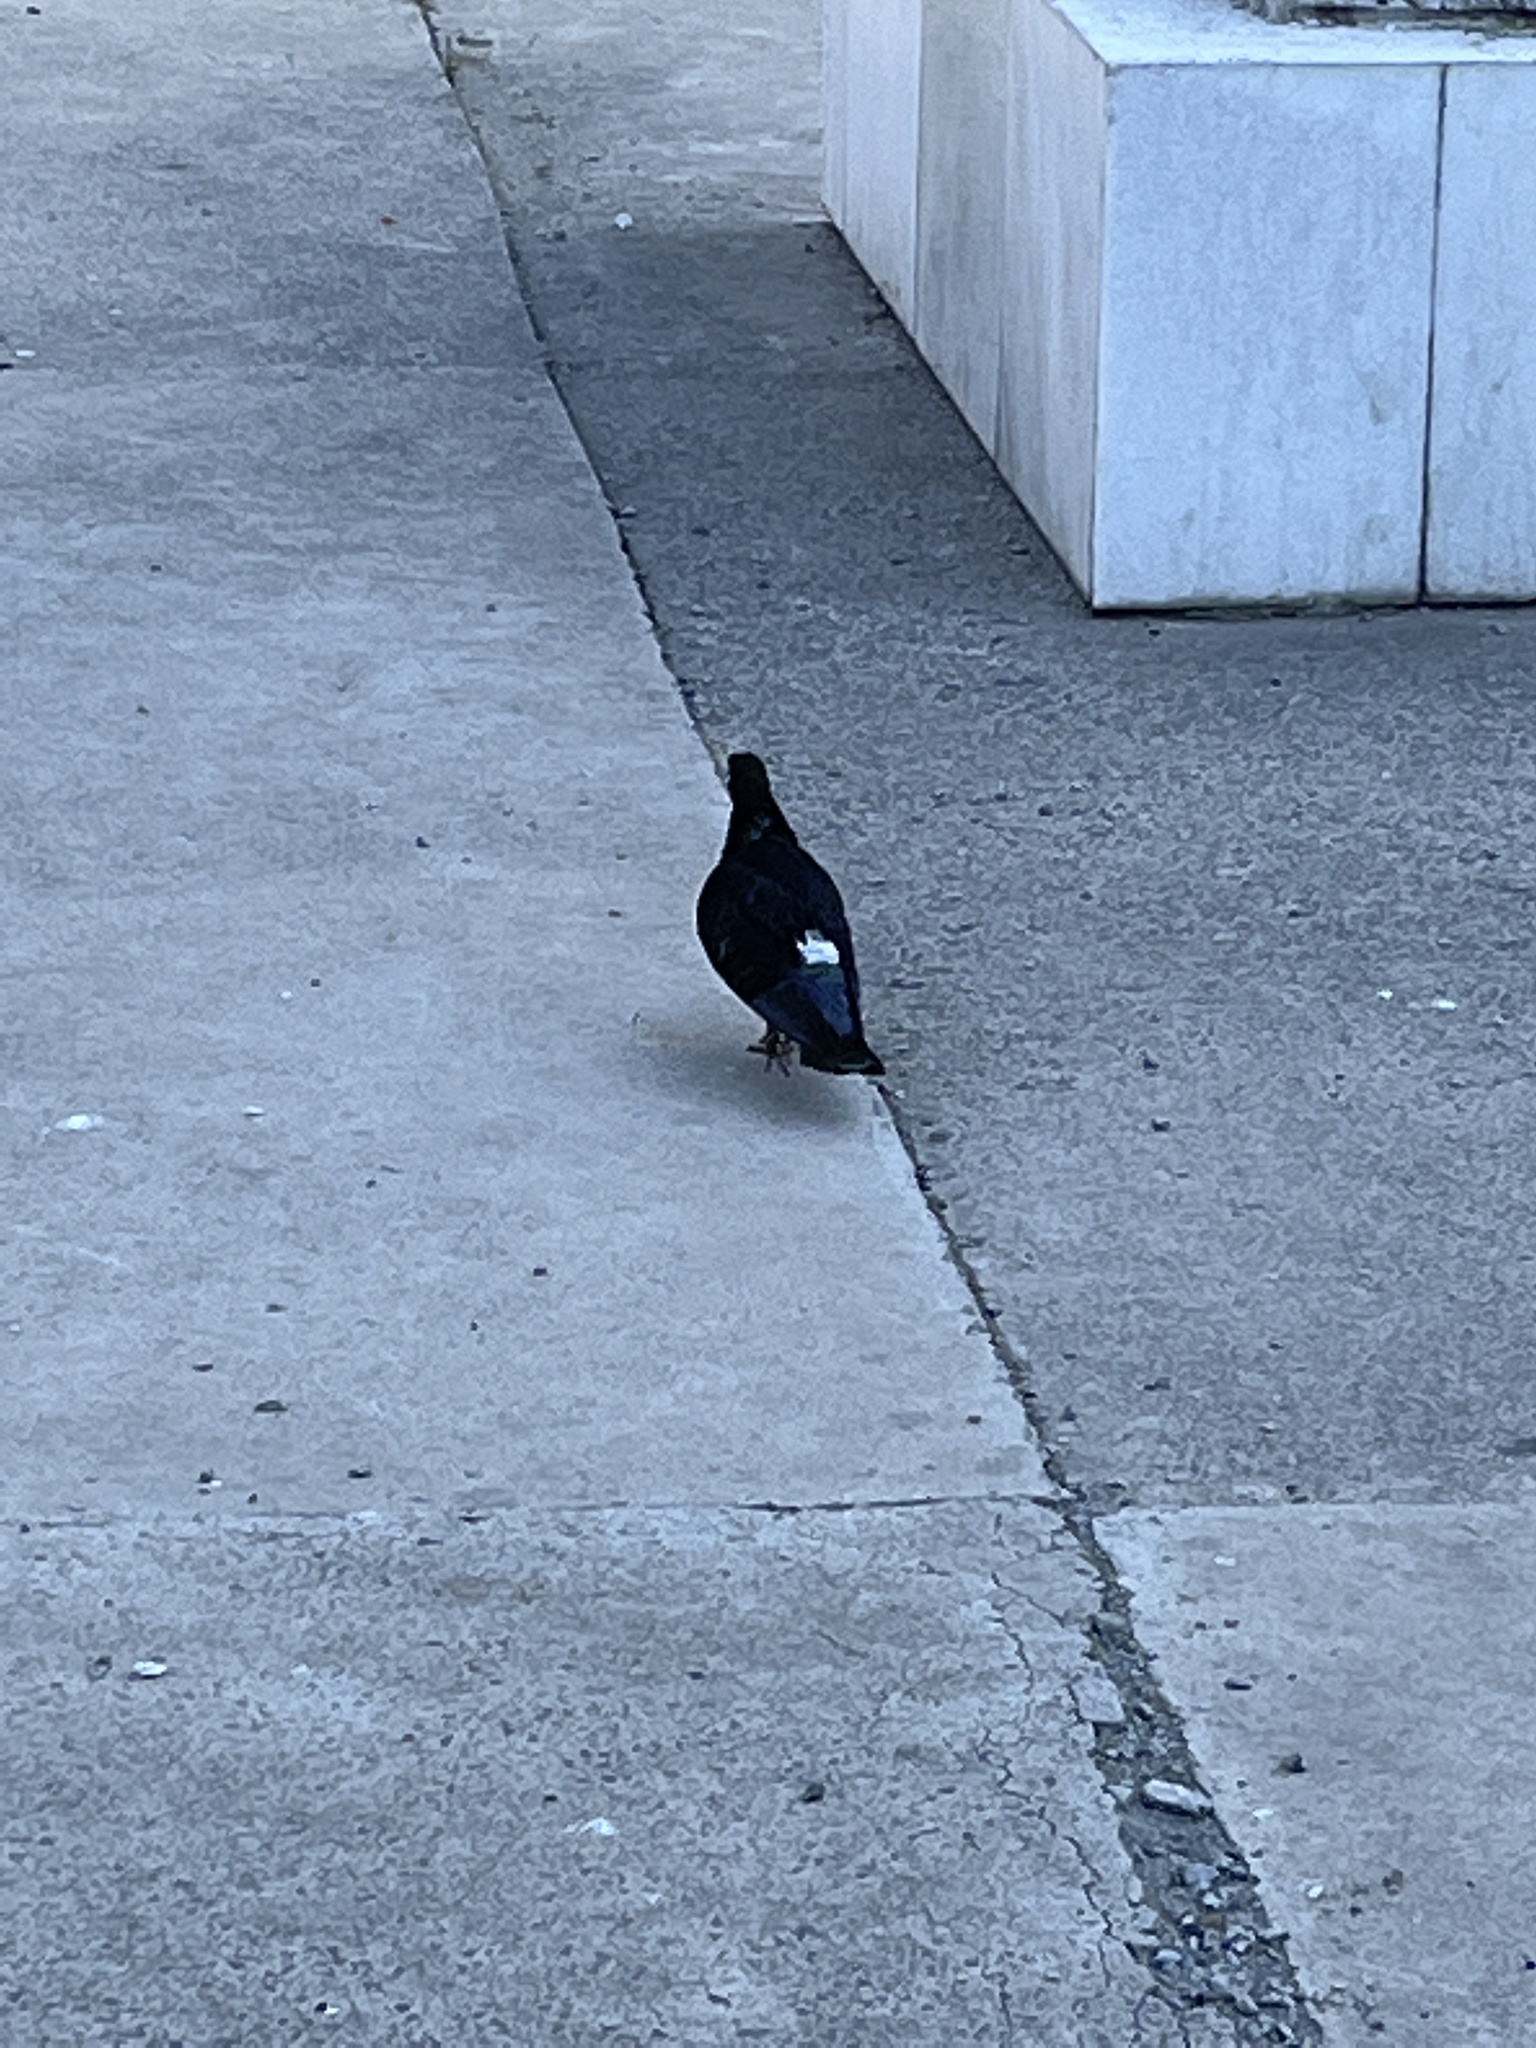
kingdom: Animalia
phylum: Chordata
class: Aves
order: Columbiformes
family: Columbidae
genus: Columba
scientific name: Columba livia
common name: Rock pigeon
